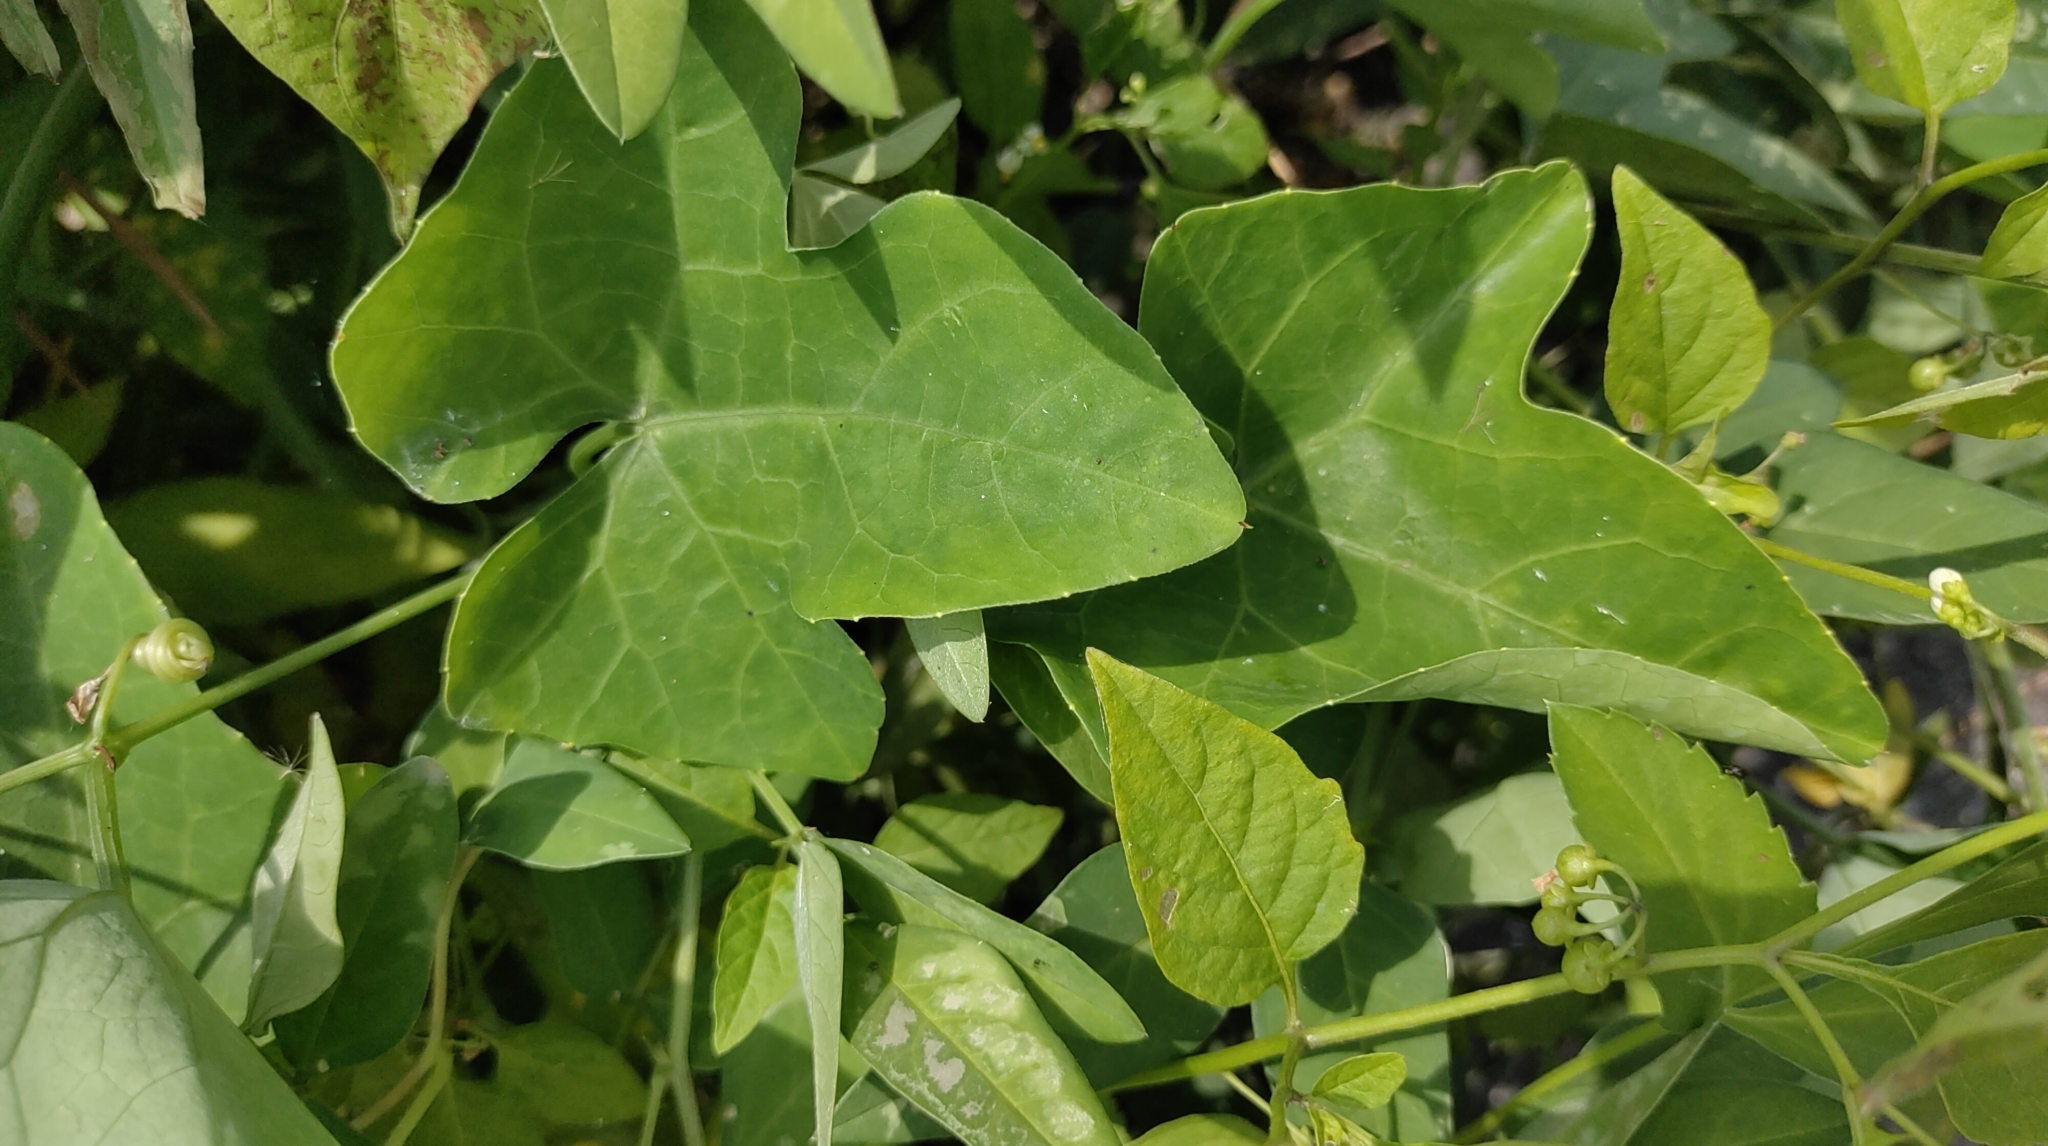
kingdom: Plantae
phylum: Tracheophyta
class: Magnoliopsida
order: Cucurbitales
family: Cucurbitaceae
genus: Coccinia
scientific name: Coccinia grandis
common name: Ivy gourd
